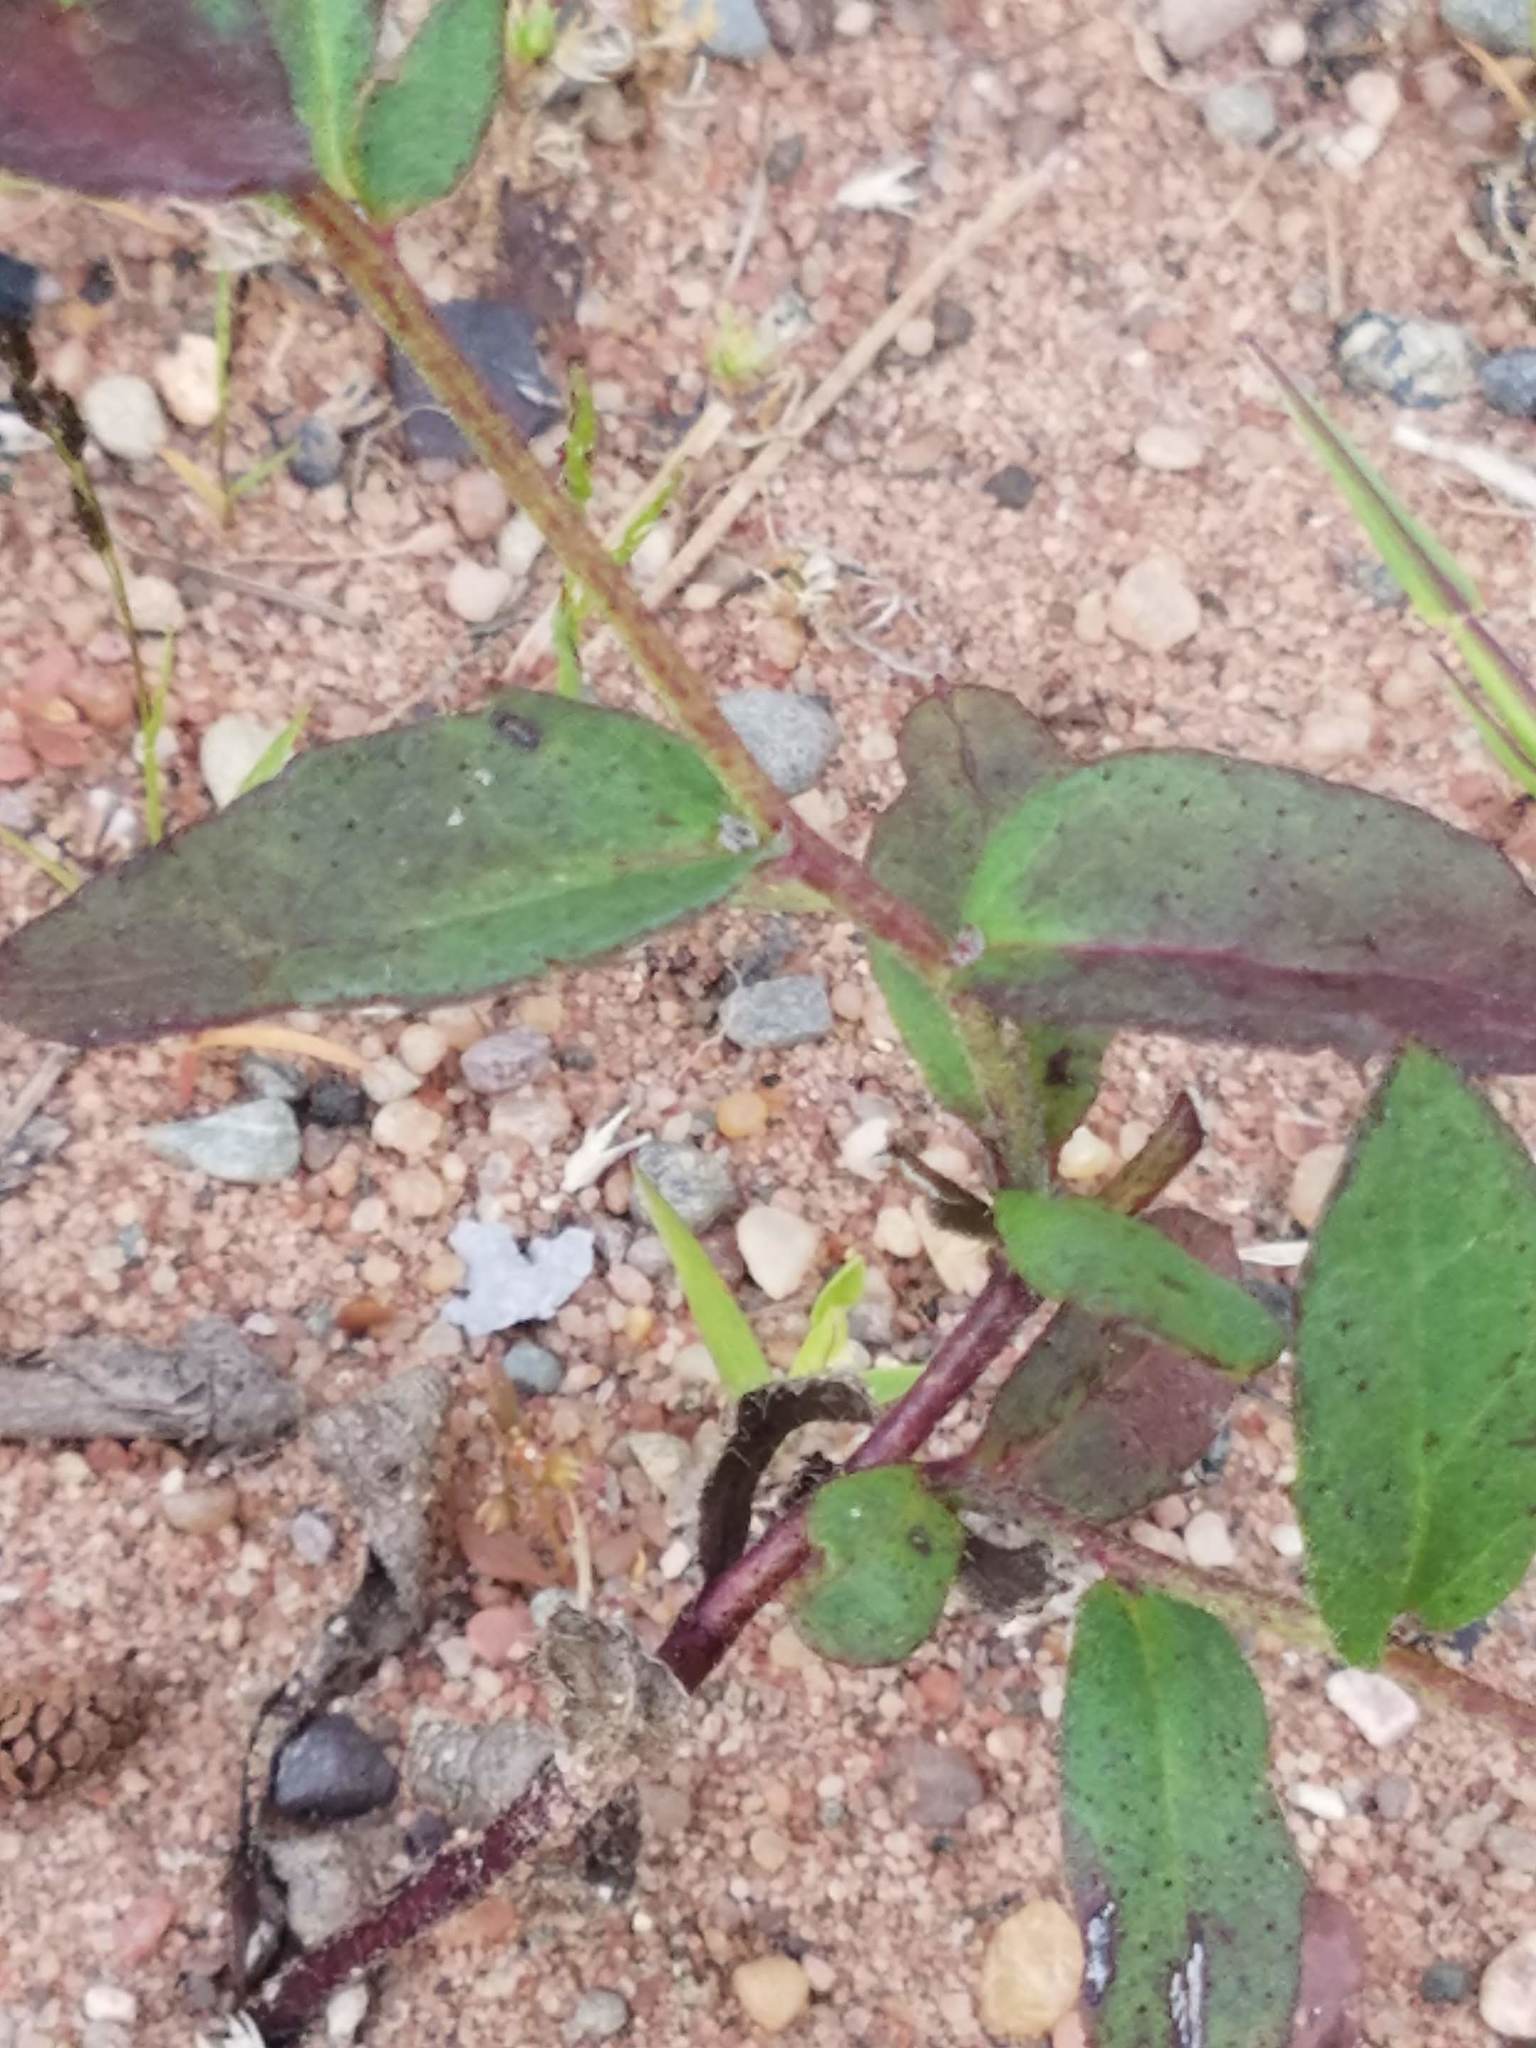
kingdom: Plantae
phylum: Tracheophyta
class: Magnoliopsida
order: Asterales
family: Asteraceae
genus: Hieracium
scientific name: Hieracium umbellatum
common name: Northern hawkweed
